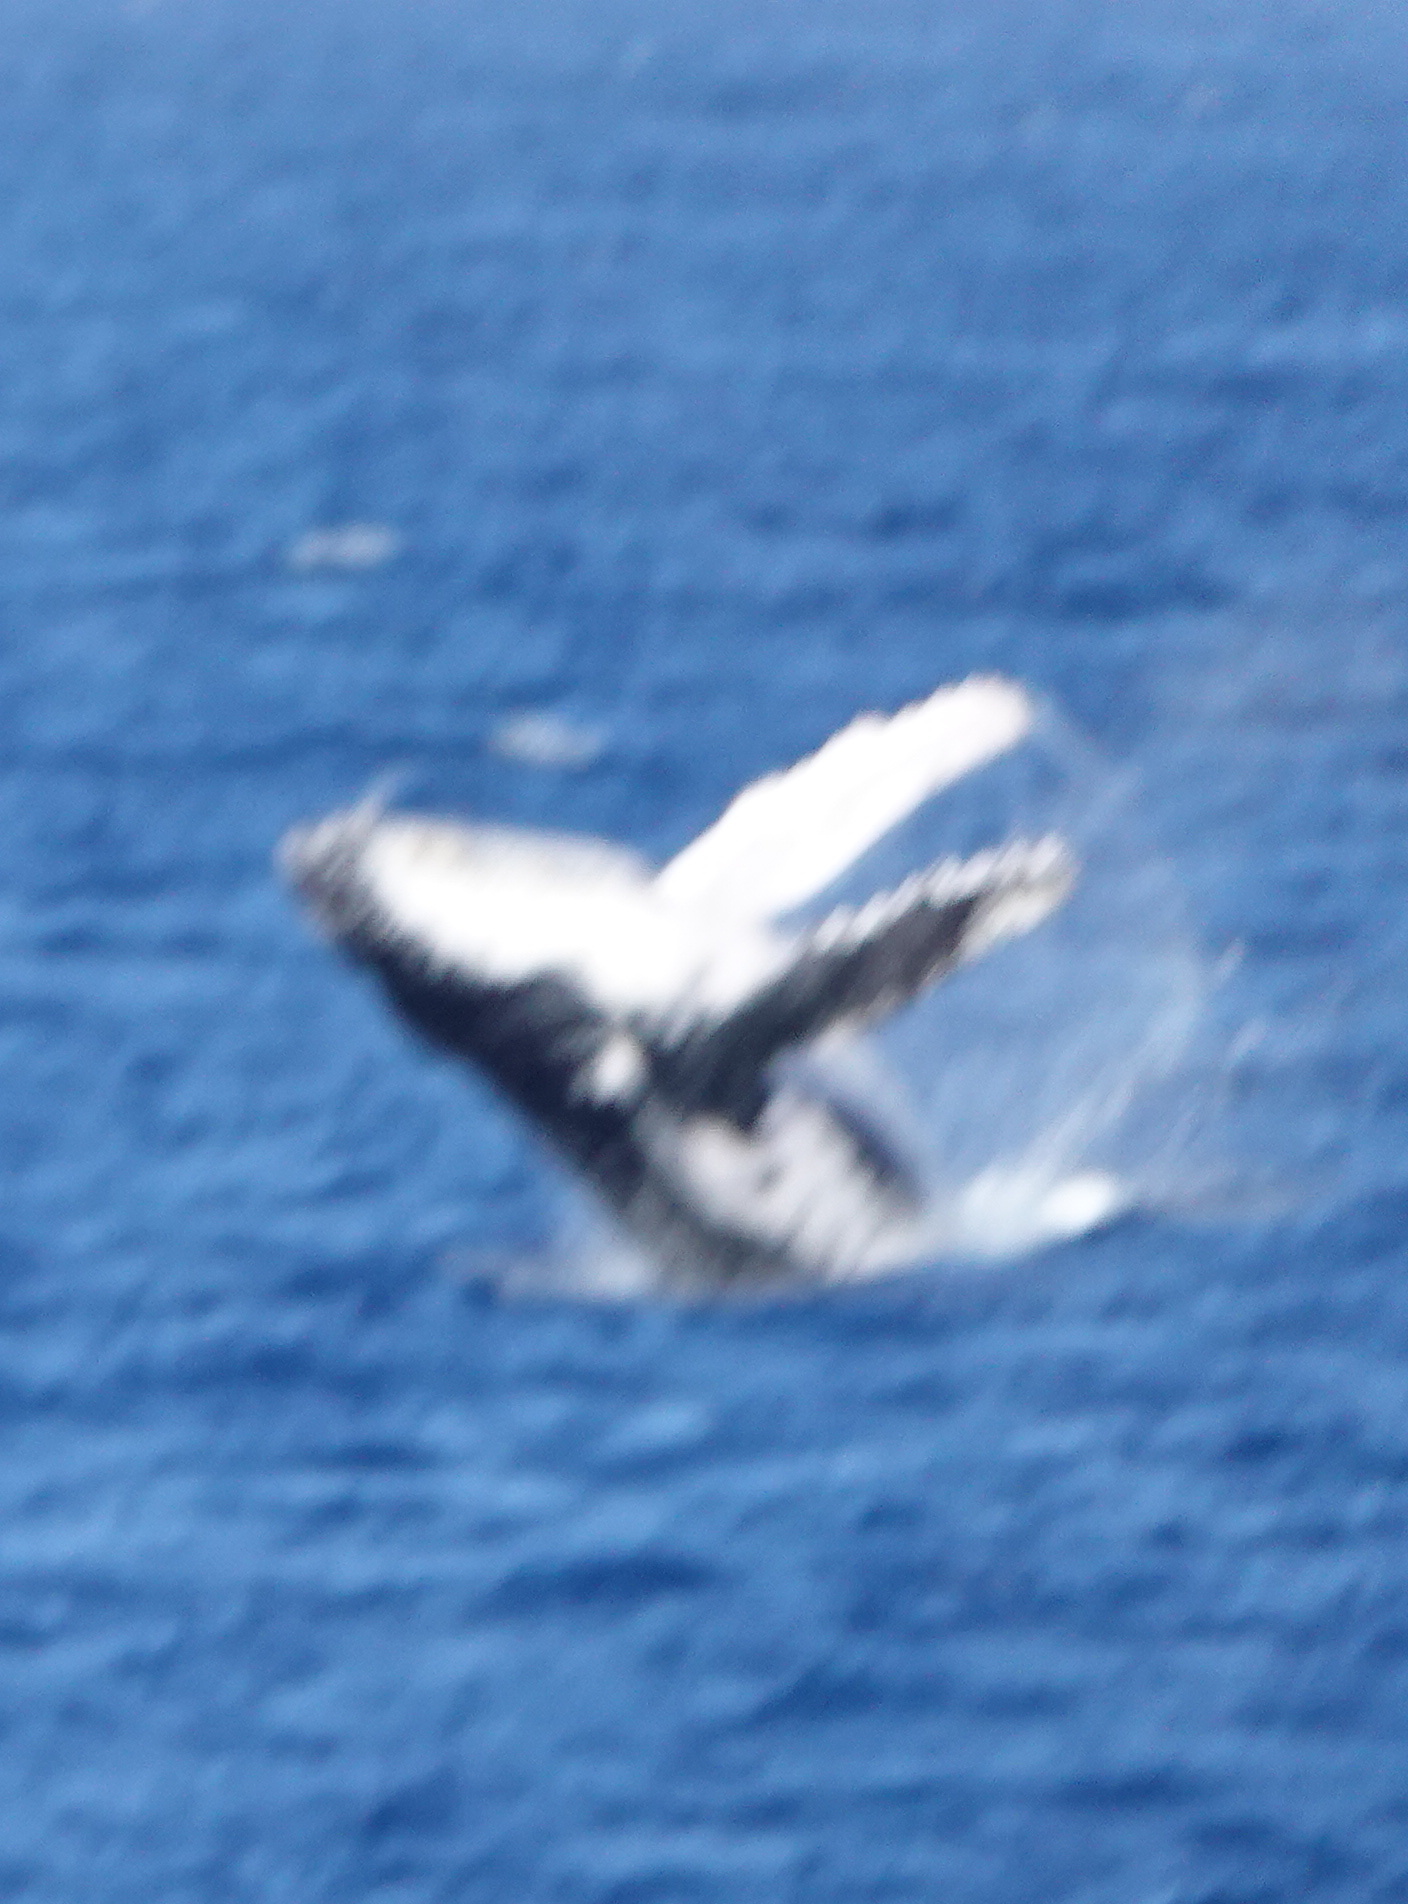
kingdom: Animalia
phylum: Chordata
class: Mammalia
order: Cetacea
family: Balaenopteridae
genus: Megaptera
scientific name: Megaptera novaeangliae
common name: Humpback whale
